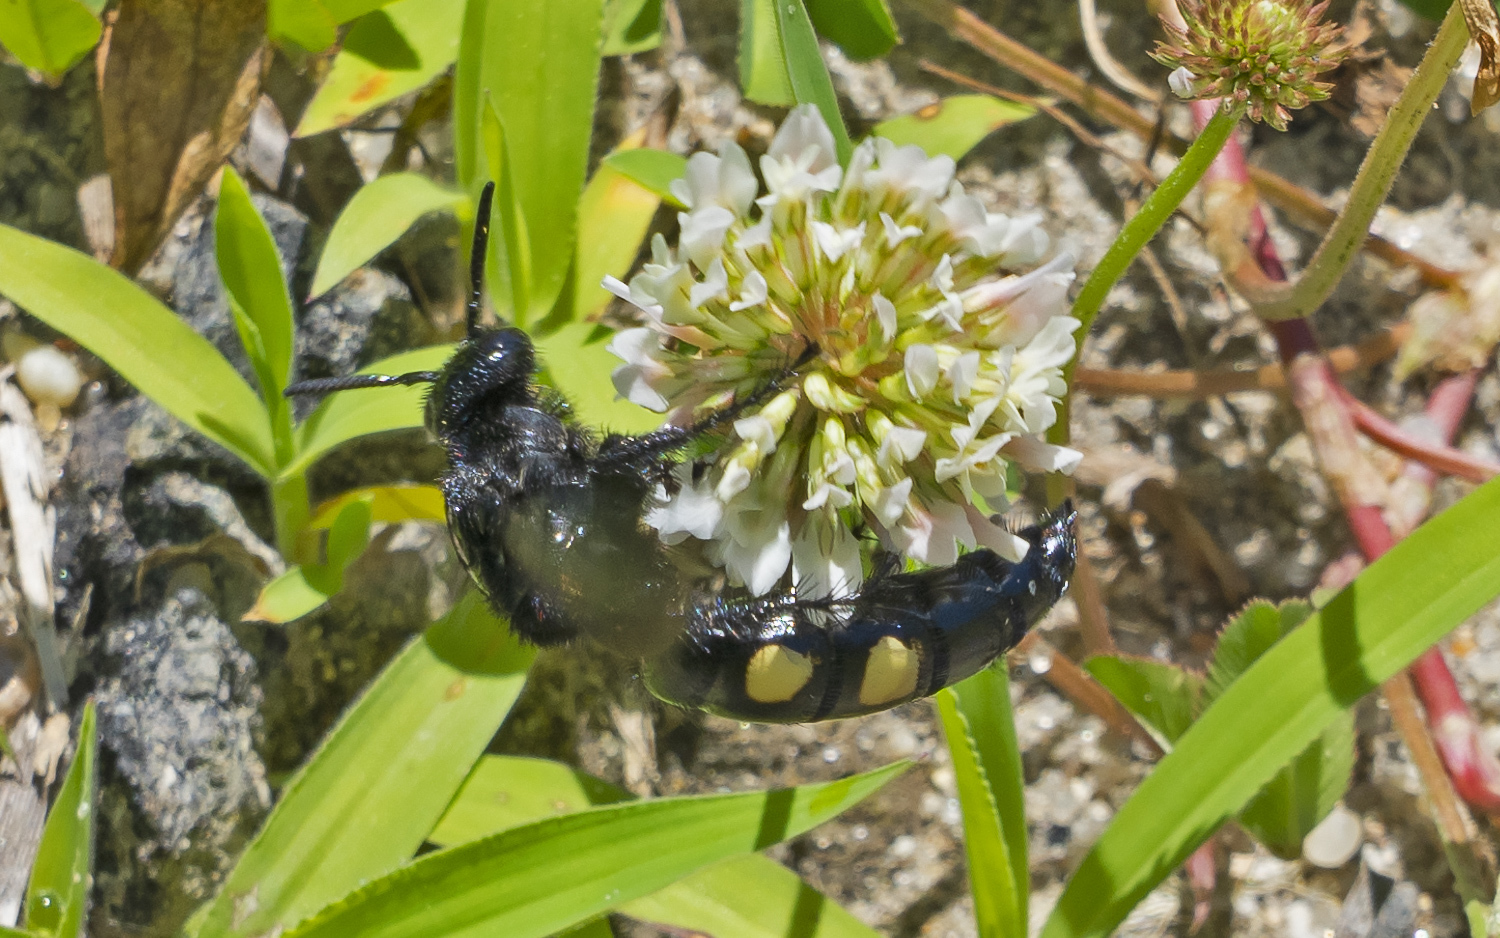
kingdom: Animalia
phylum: Arthropoda
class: Insecta
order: Hymenoptera
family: Scoliidae
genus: Pygodasis
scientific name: Pygodasis
